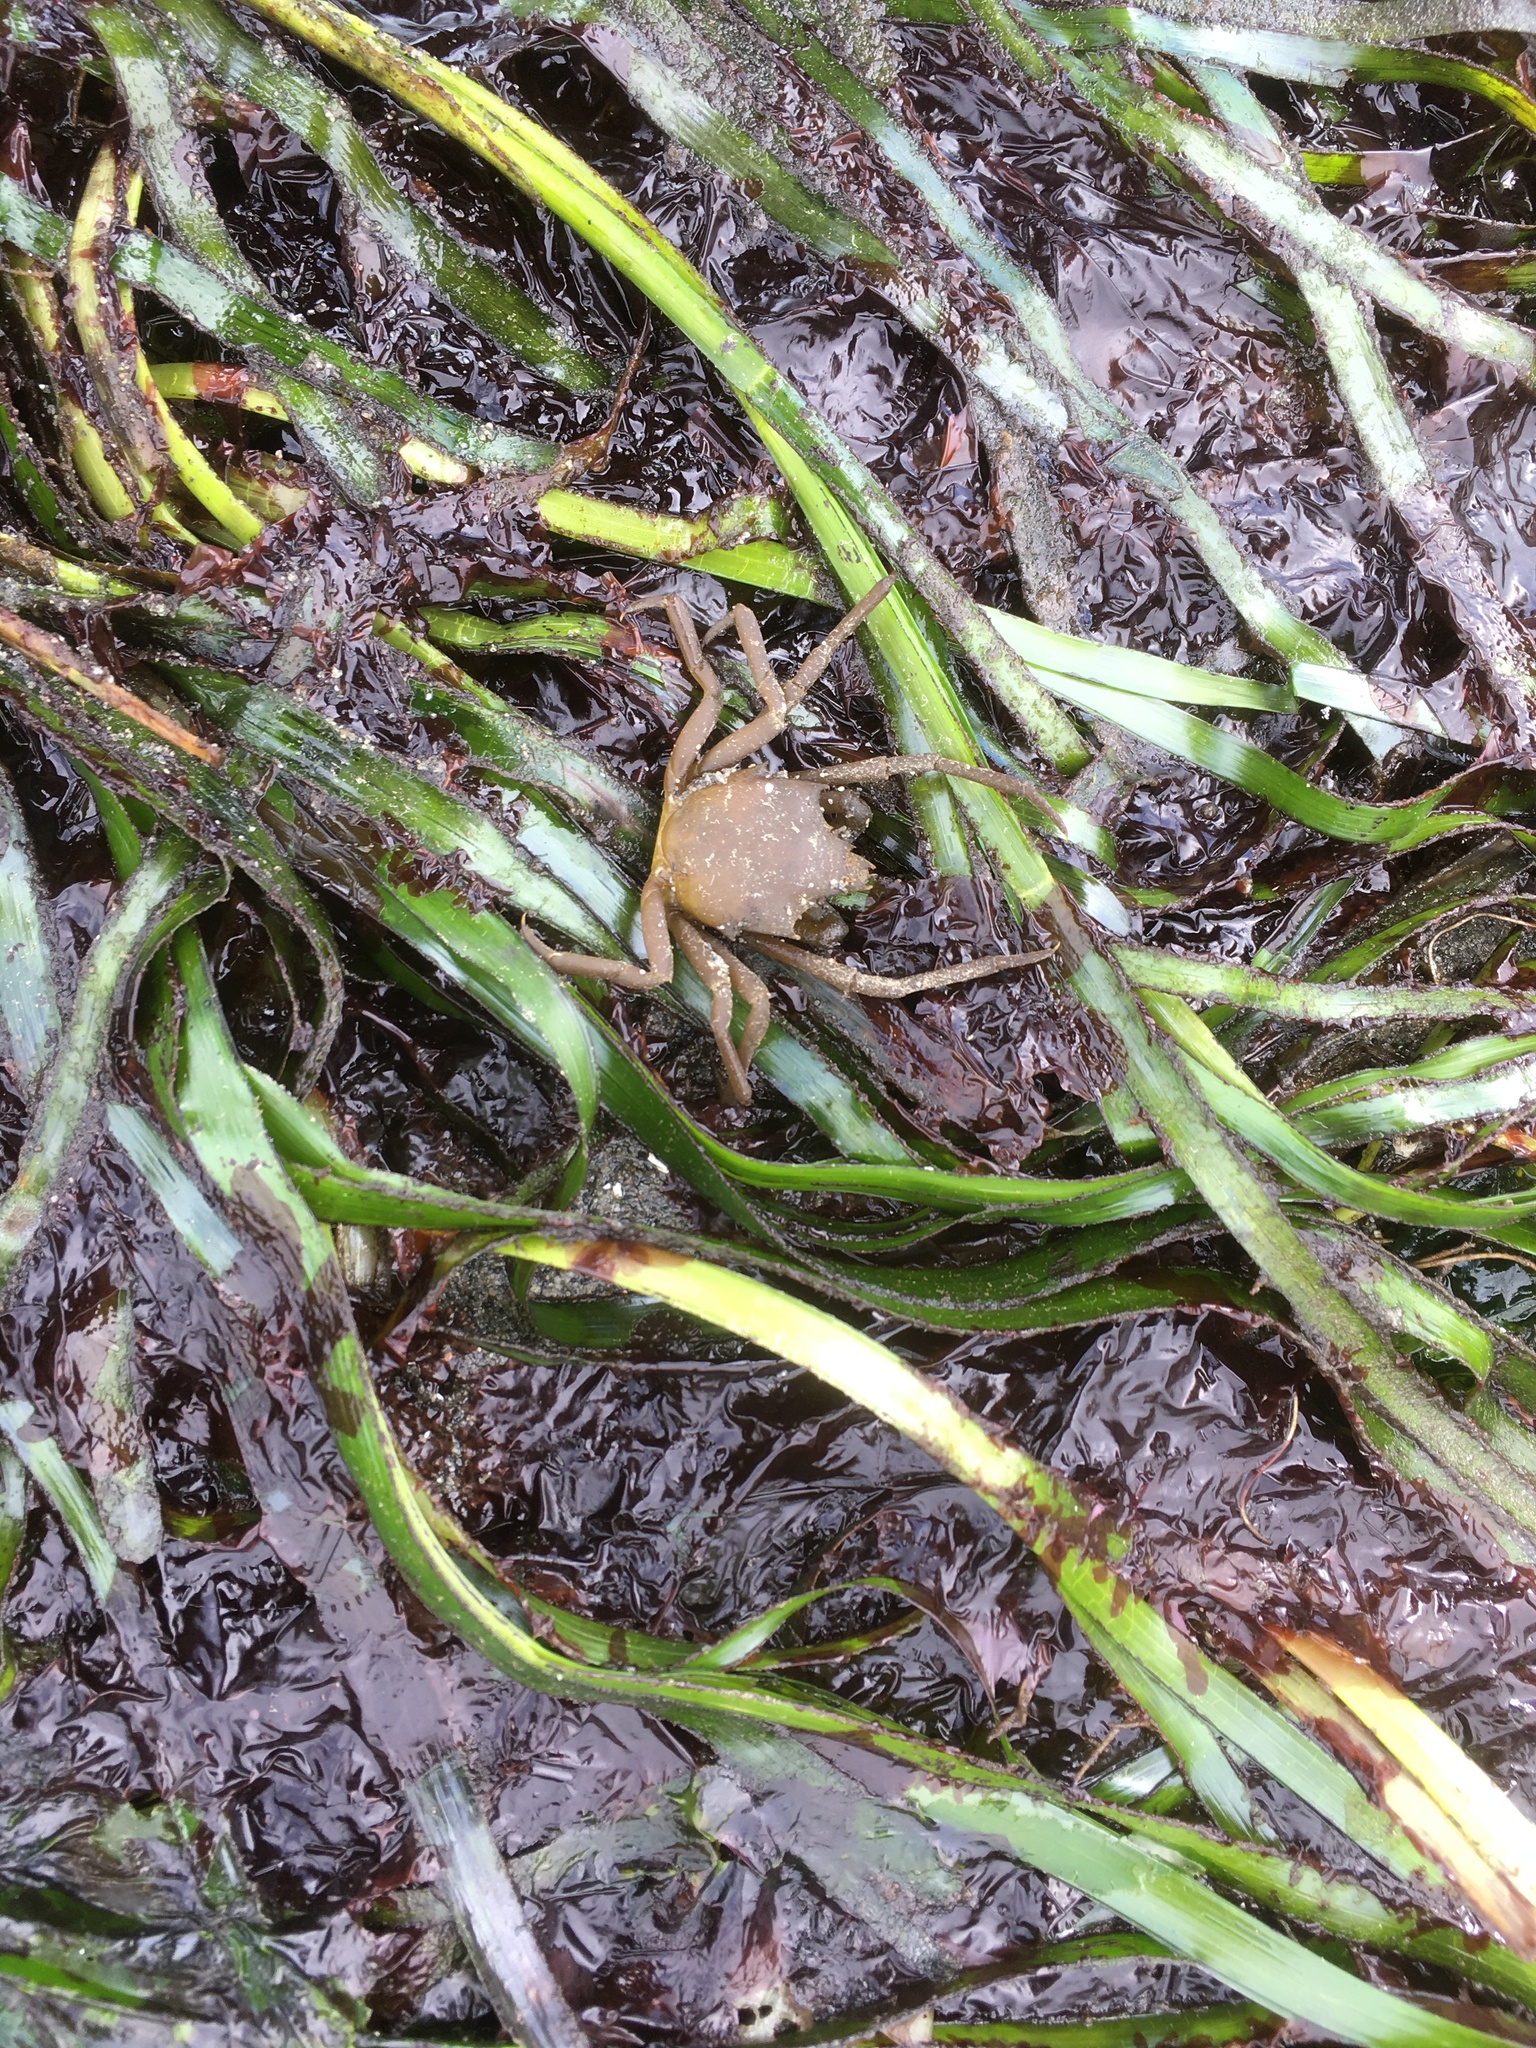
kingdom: Animalia
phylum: Arthropoda
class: Malacostraca
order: Decapoda
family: Epialtidae
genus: Pugettia
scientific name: Pugettia producta
